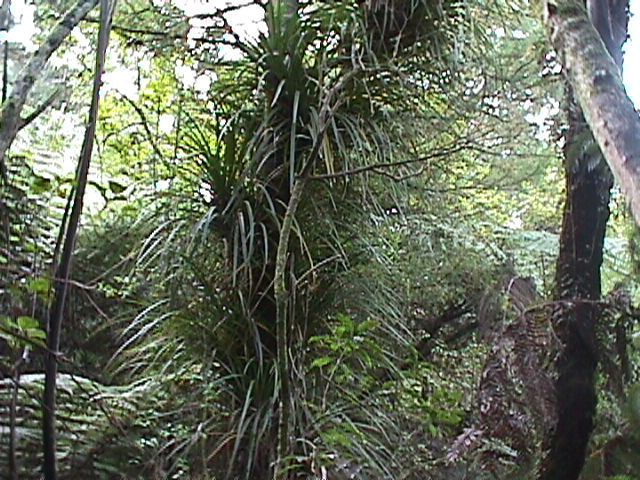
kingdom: Plantae
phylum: Tracheophyta
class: Liliopsida
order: Pandanales
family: Pandanaceae
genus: Freycinetia
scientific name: Freycinetia banksii
